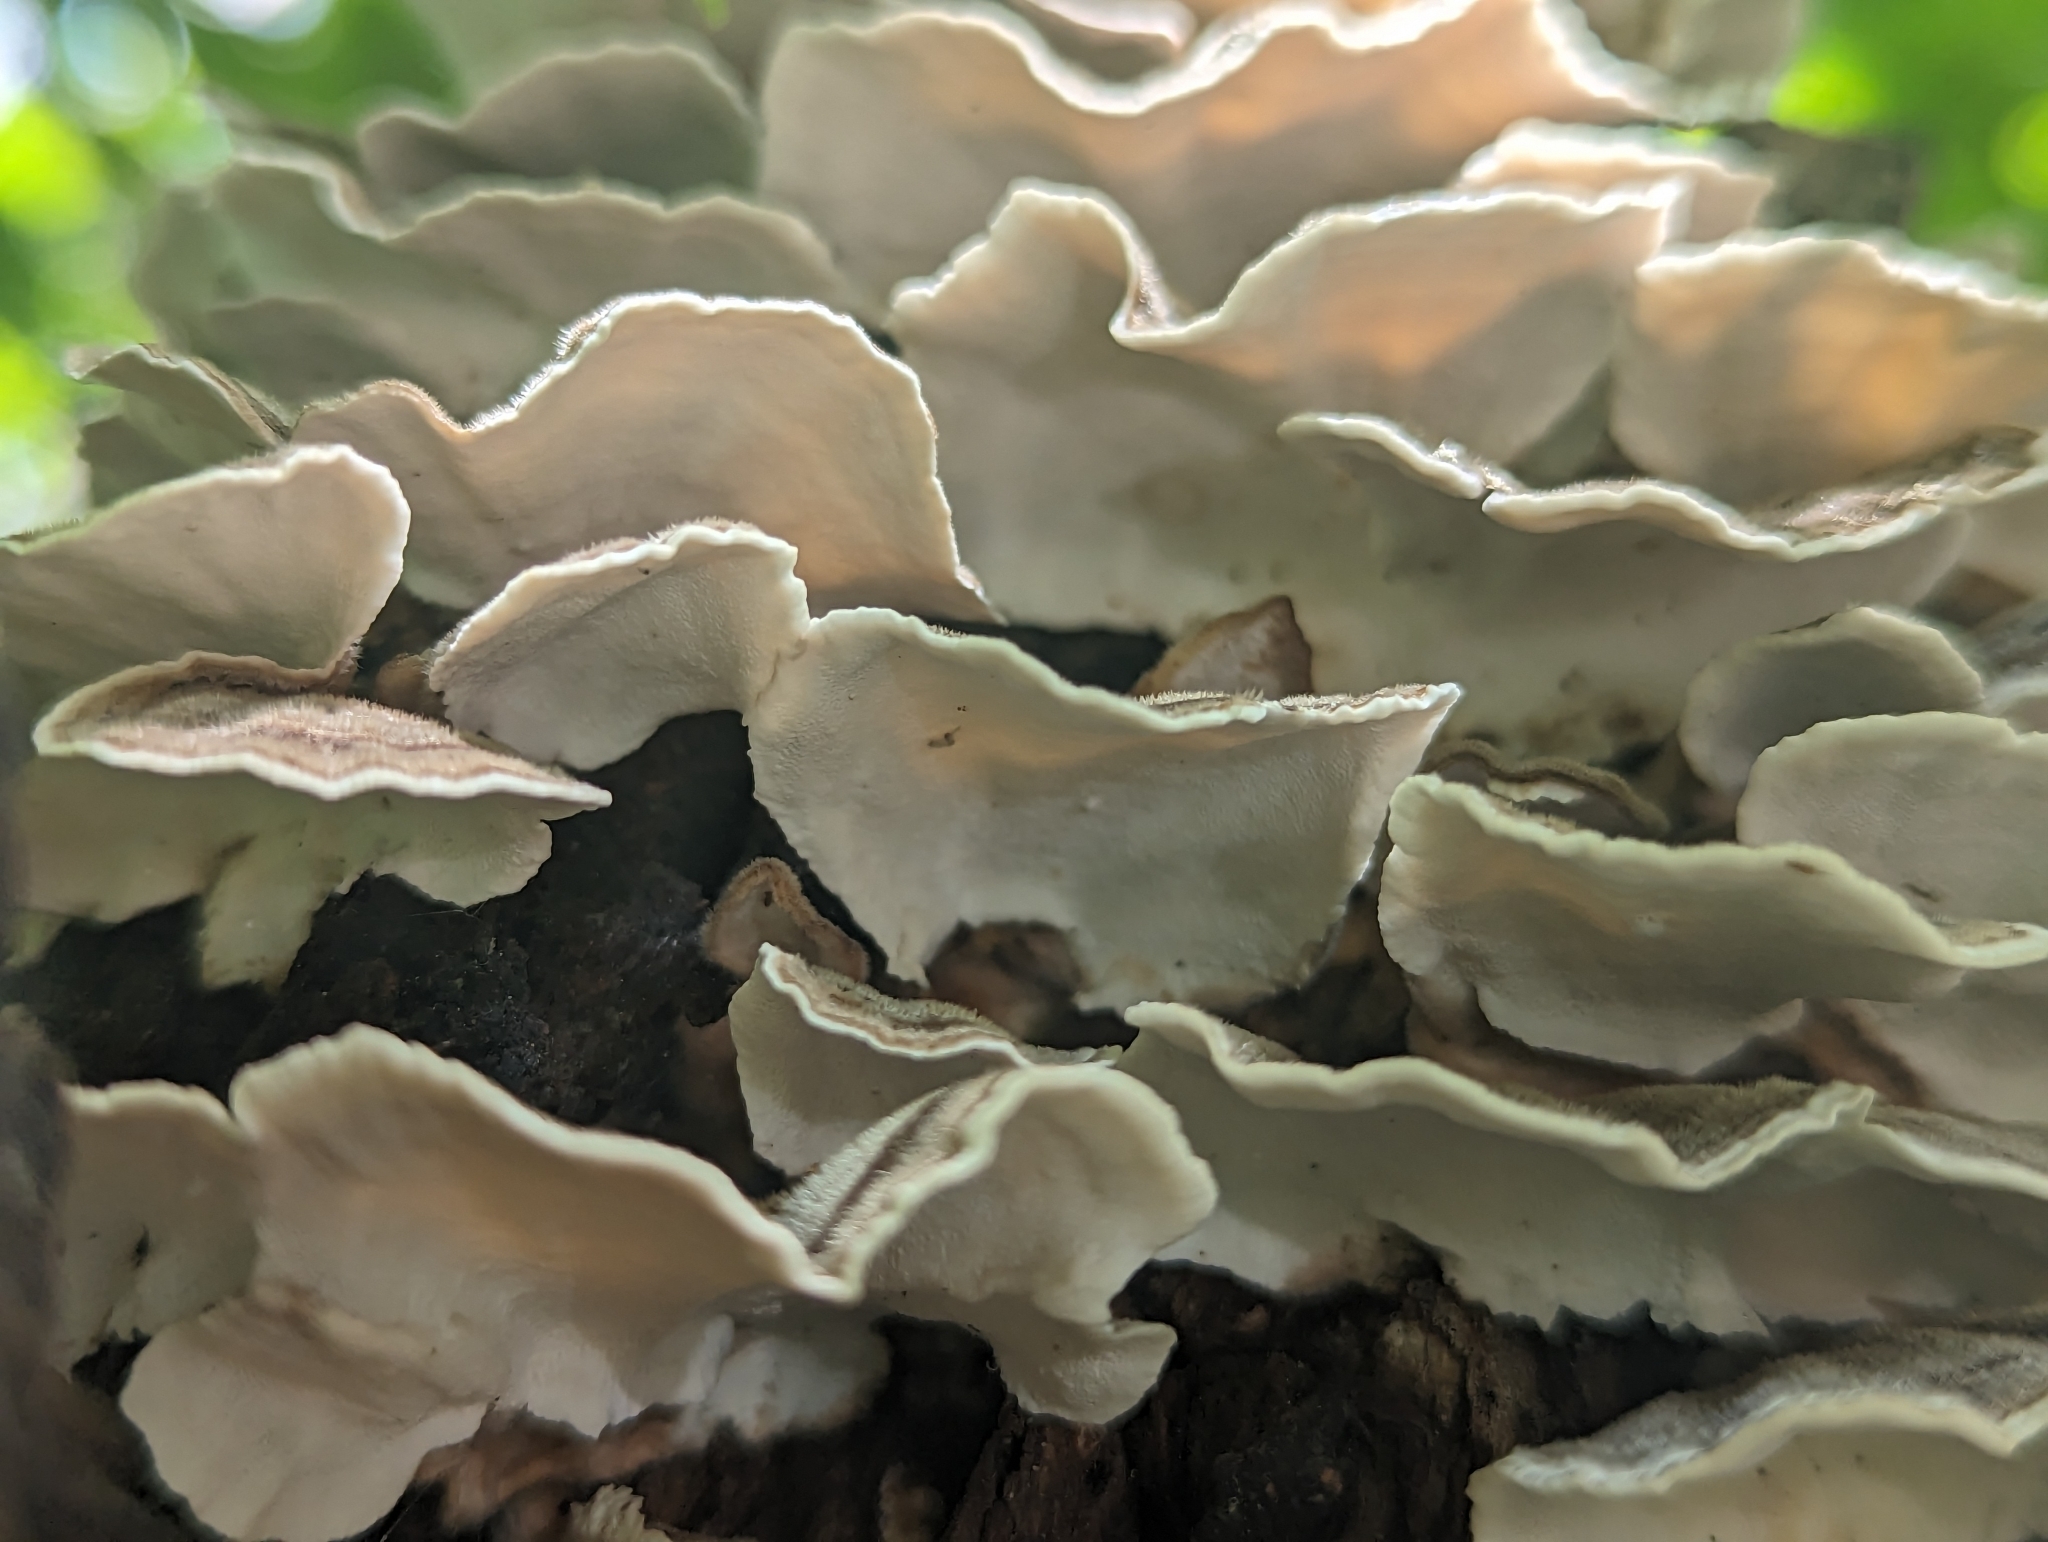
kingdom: Fungi
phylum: Basidiomycota
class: Agaricomycetes
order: Polyporales
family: Polyporaceae
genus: Trametes
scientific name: Trametes versicolor
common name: Turkeytail
